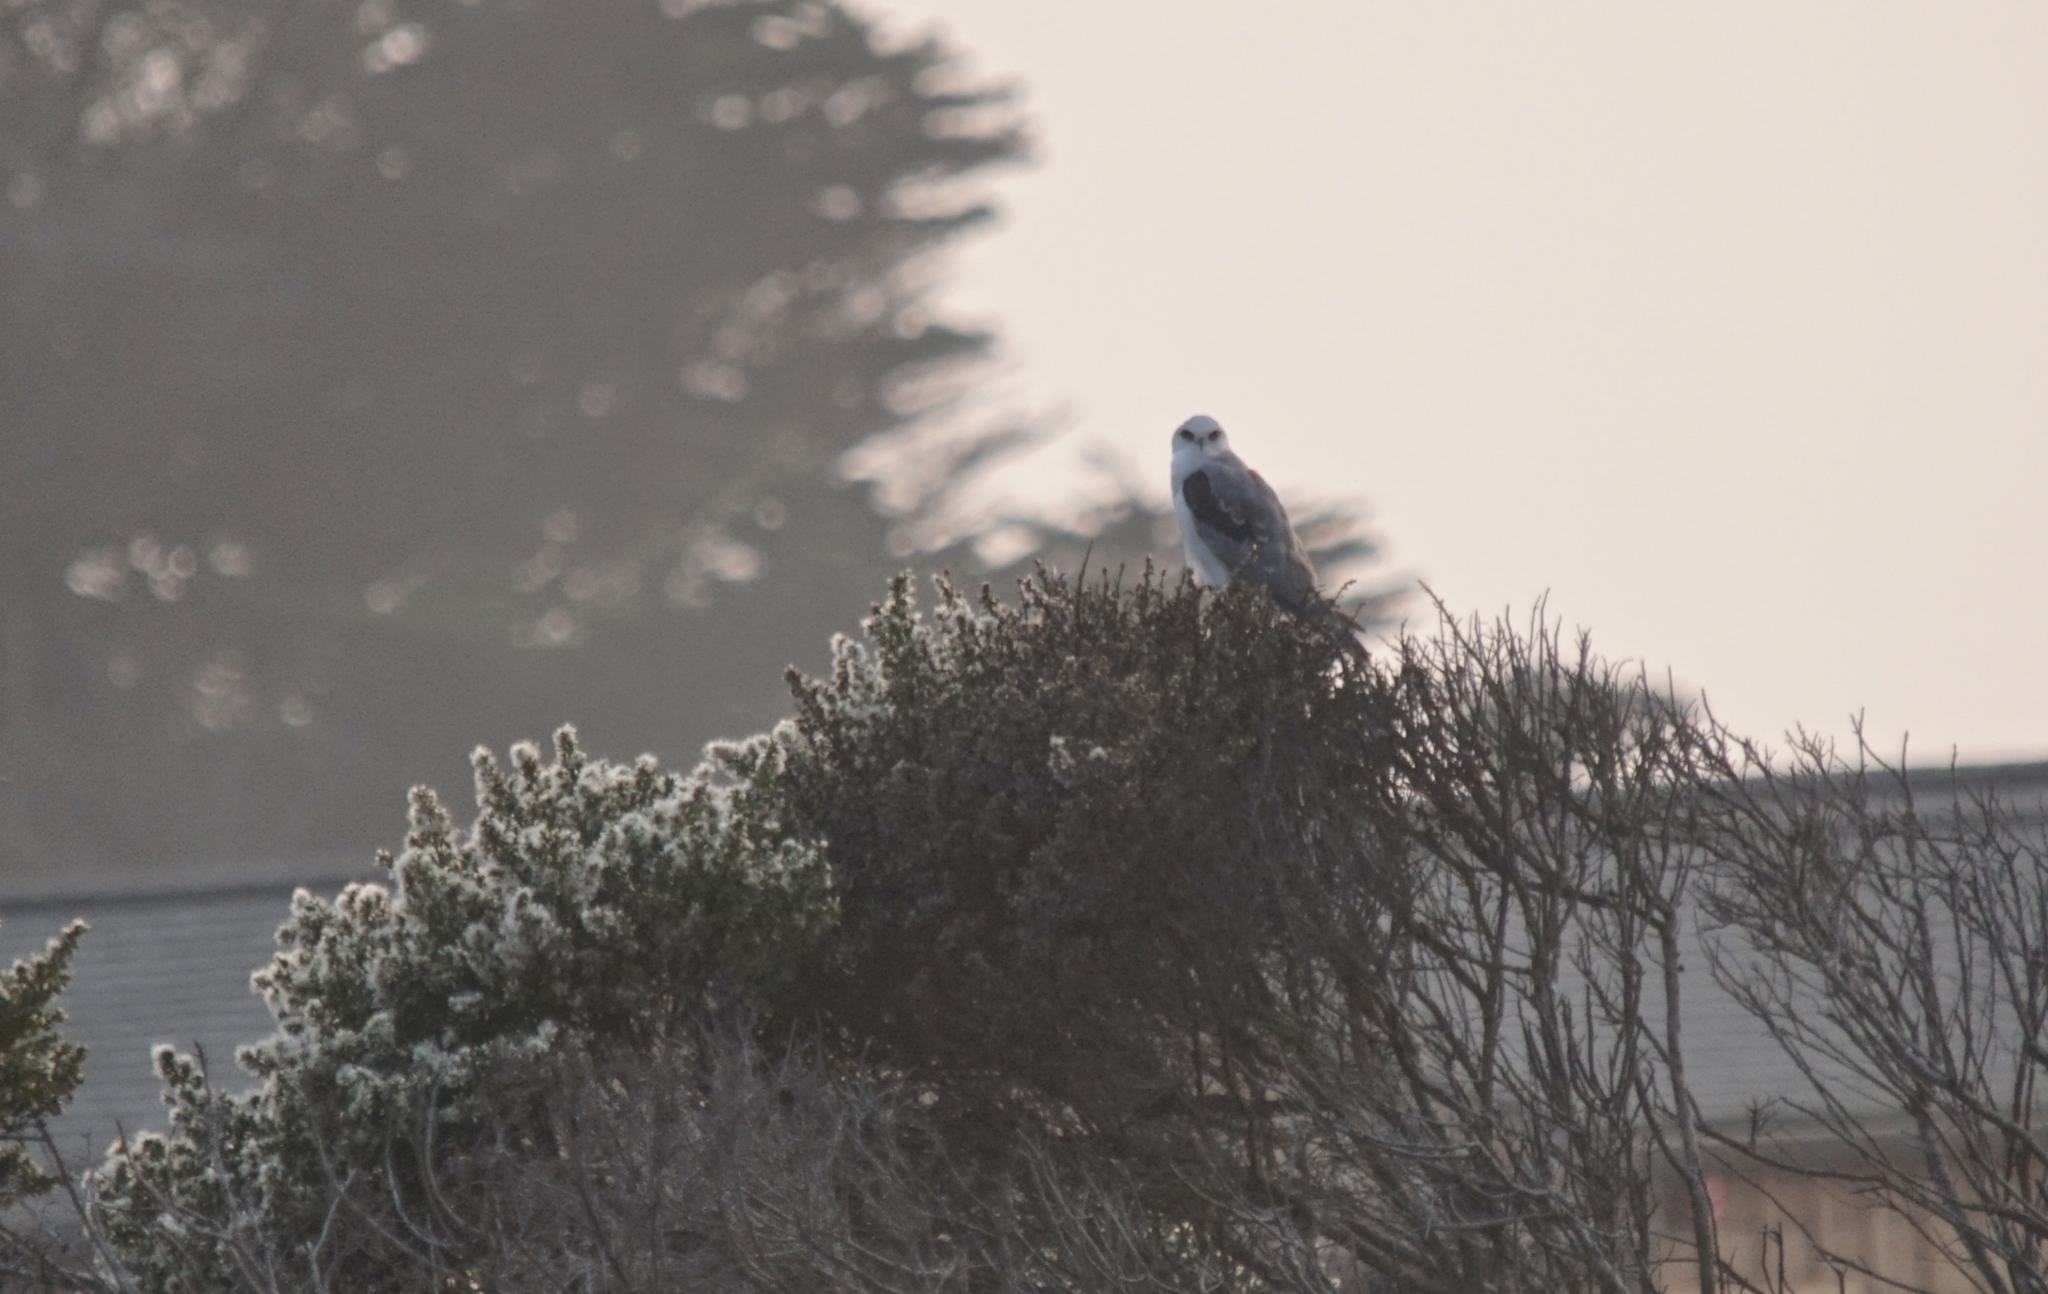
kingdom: Animalia
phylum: Chordata
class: Aves
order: Accipitriformes
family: Accipitridae
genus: Elanus
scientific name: Elanus leucurus
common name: White-tailed kite
